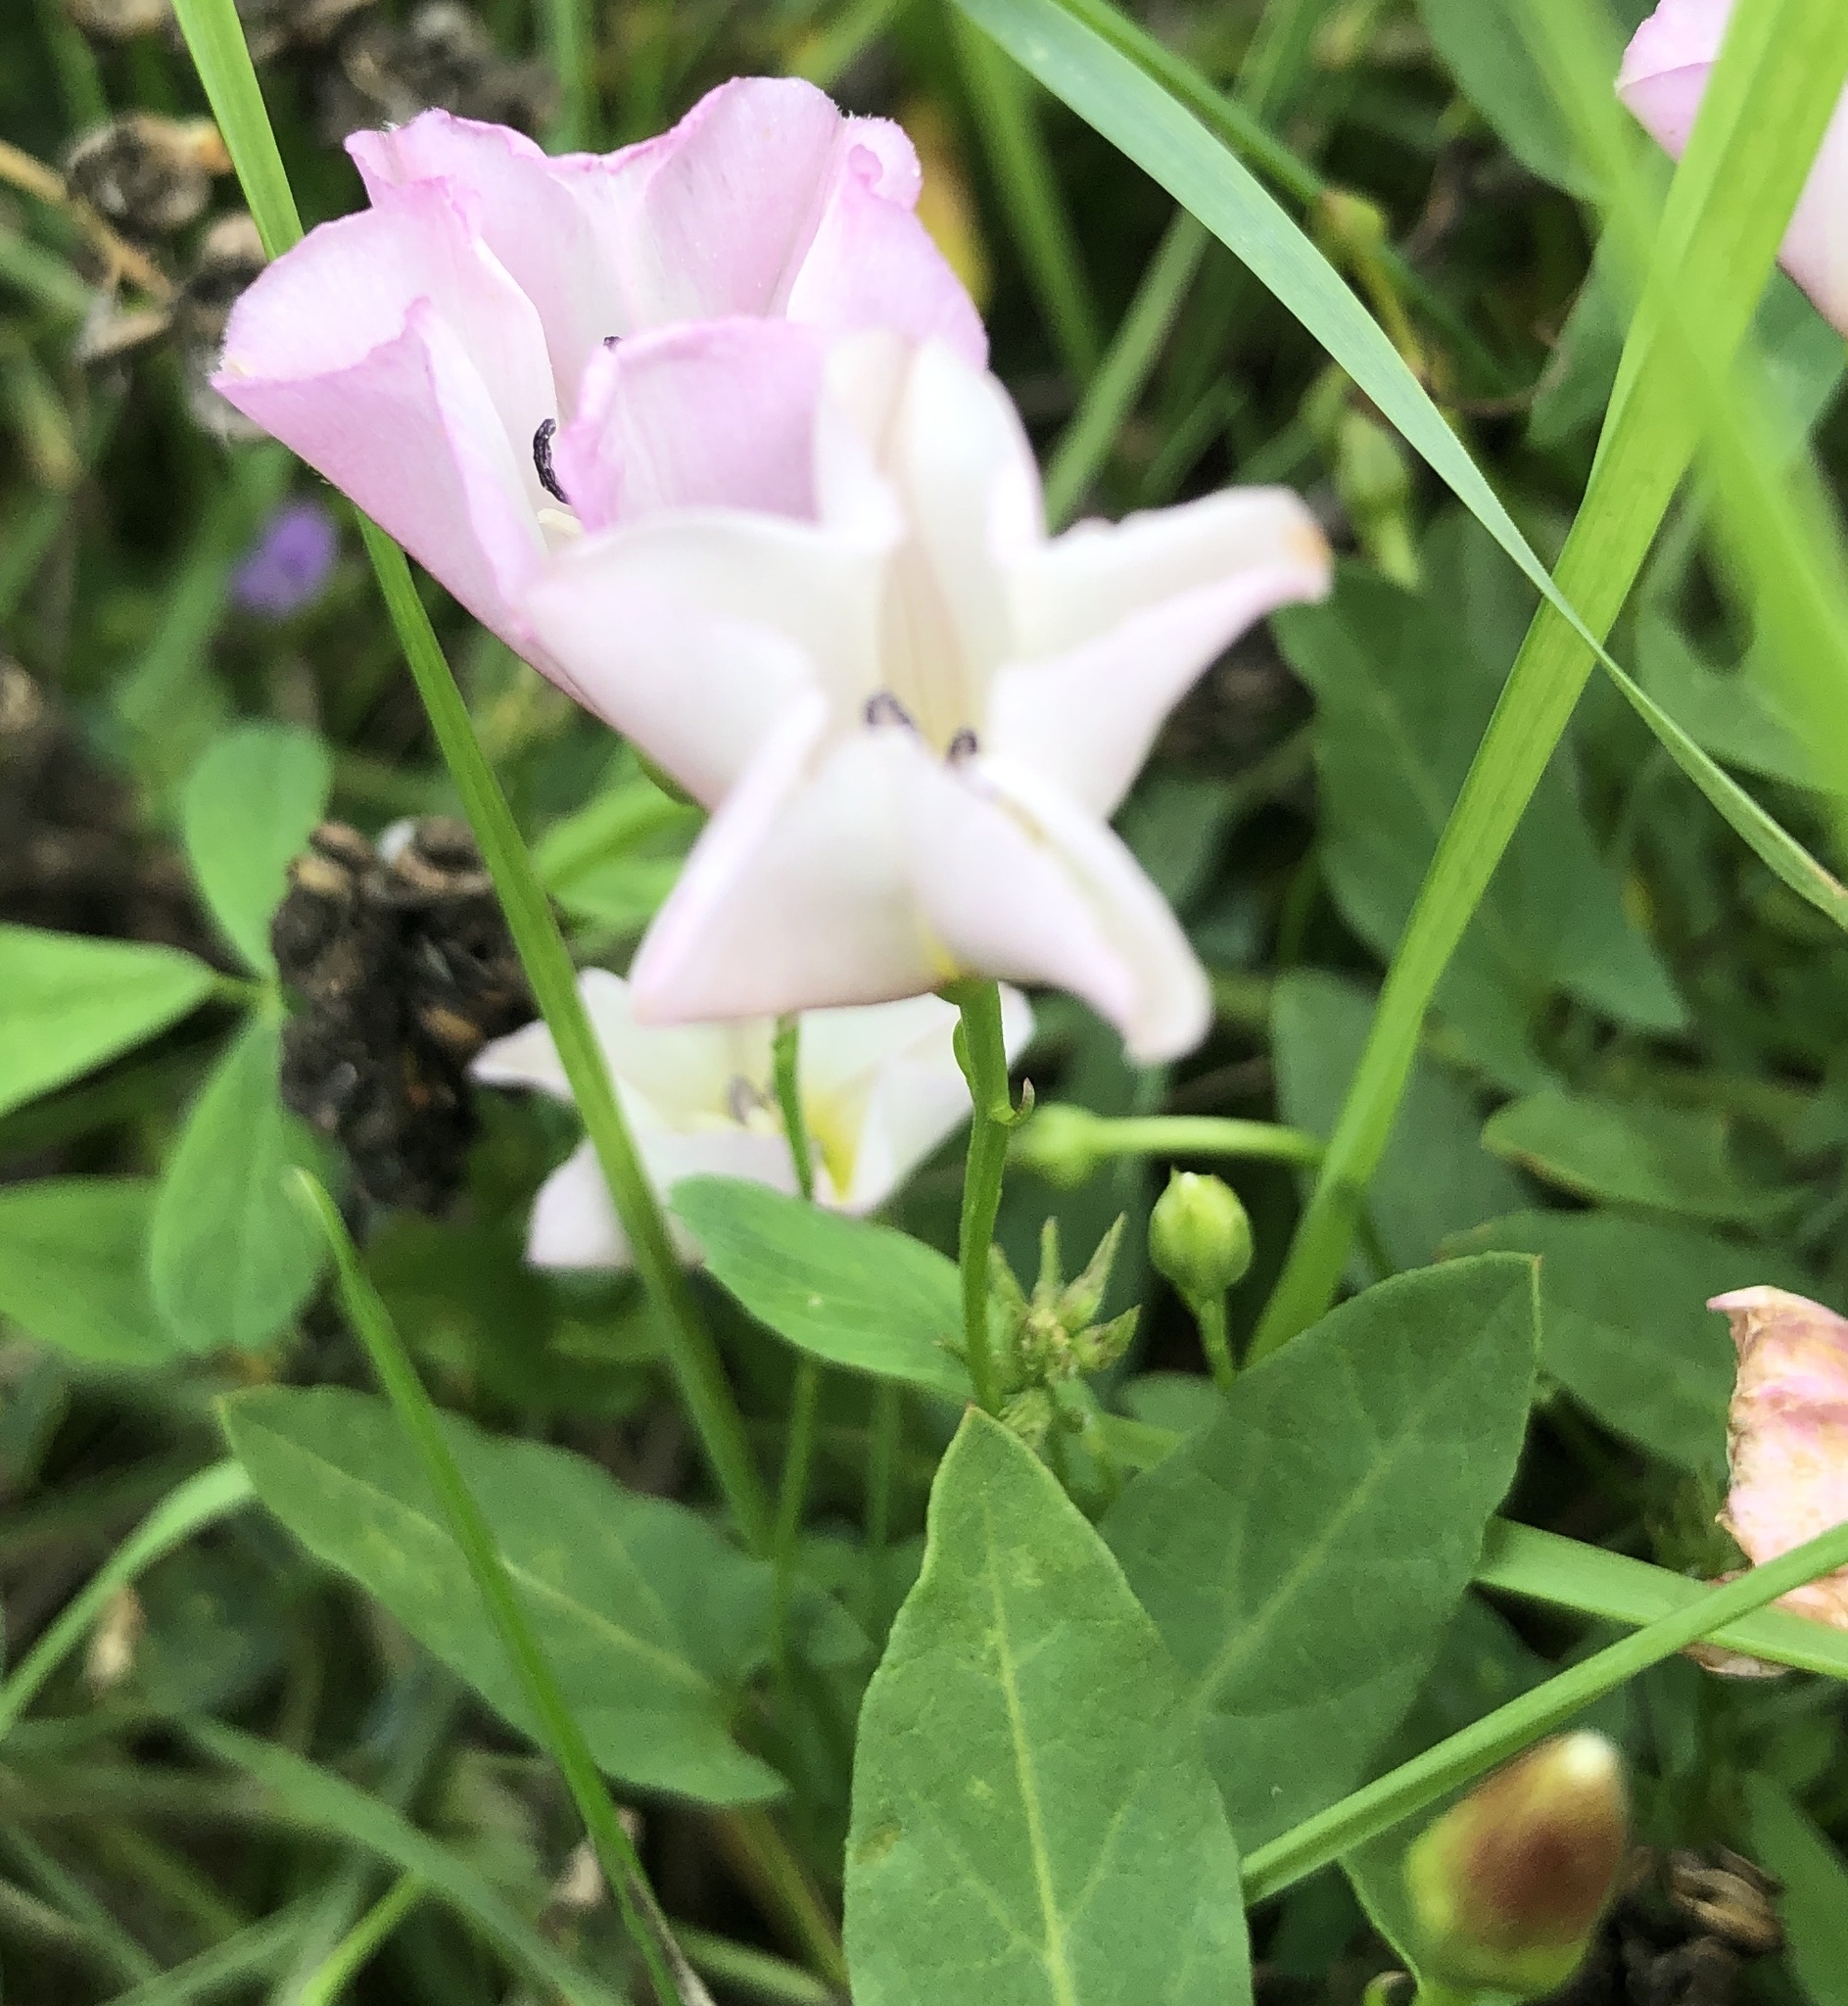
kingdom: Plantae
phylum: Tracheophyta
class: Magnoliopsida
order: Solanales
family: Convolvulaceae
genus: Convolvulus
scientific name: Convolvulus arvensis
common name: Field bindweed
